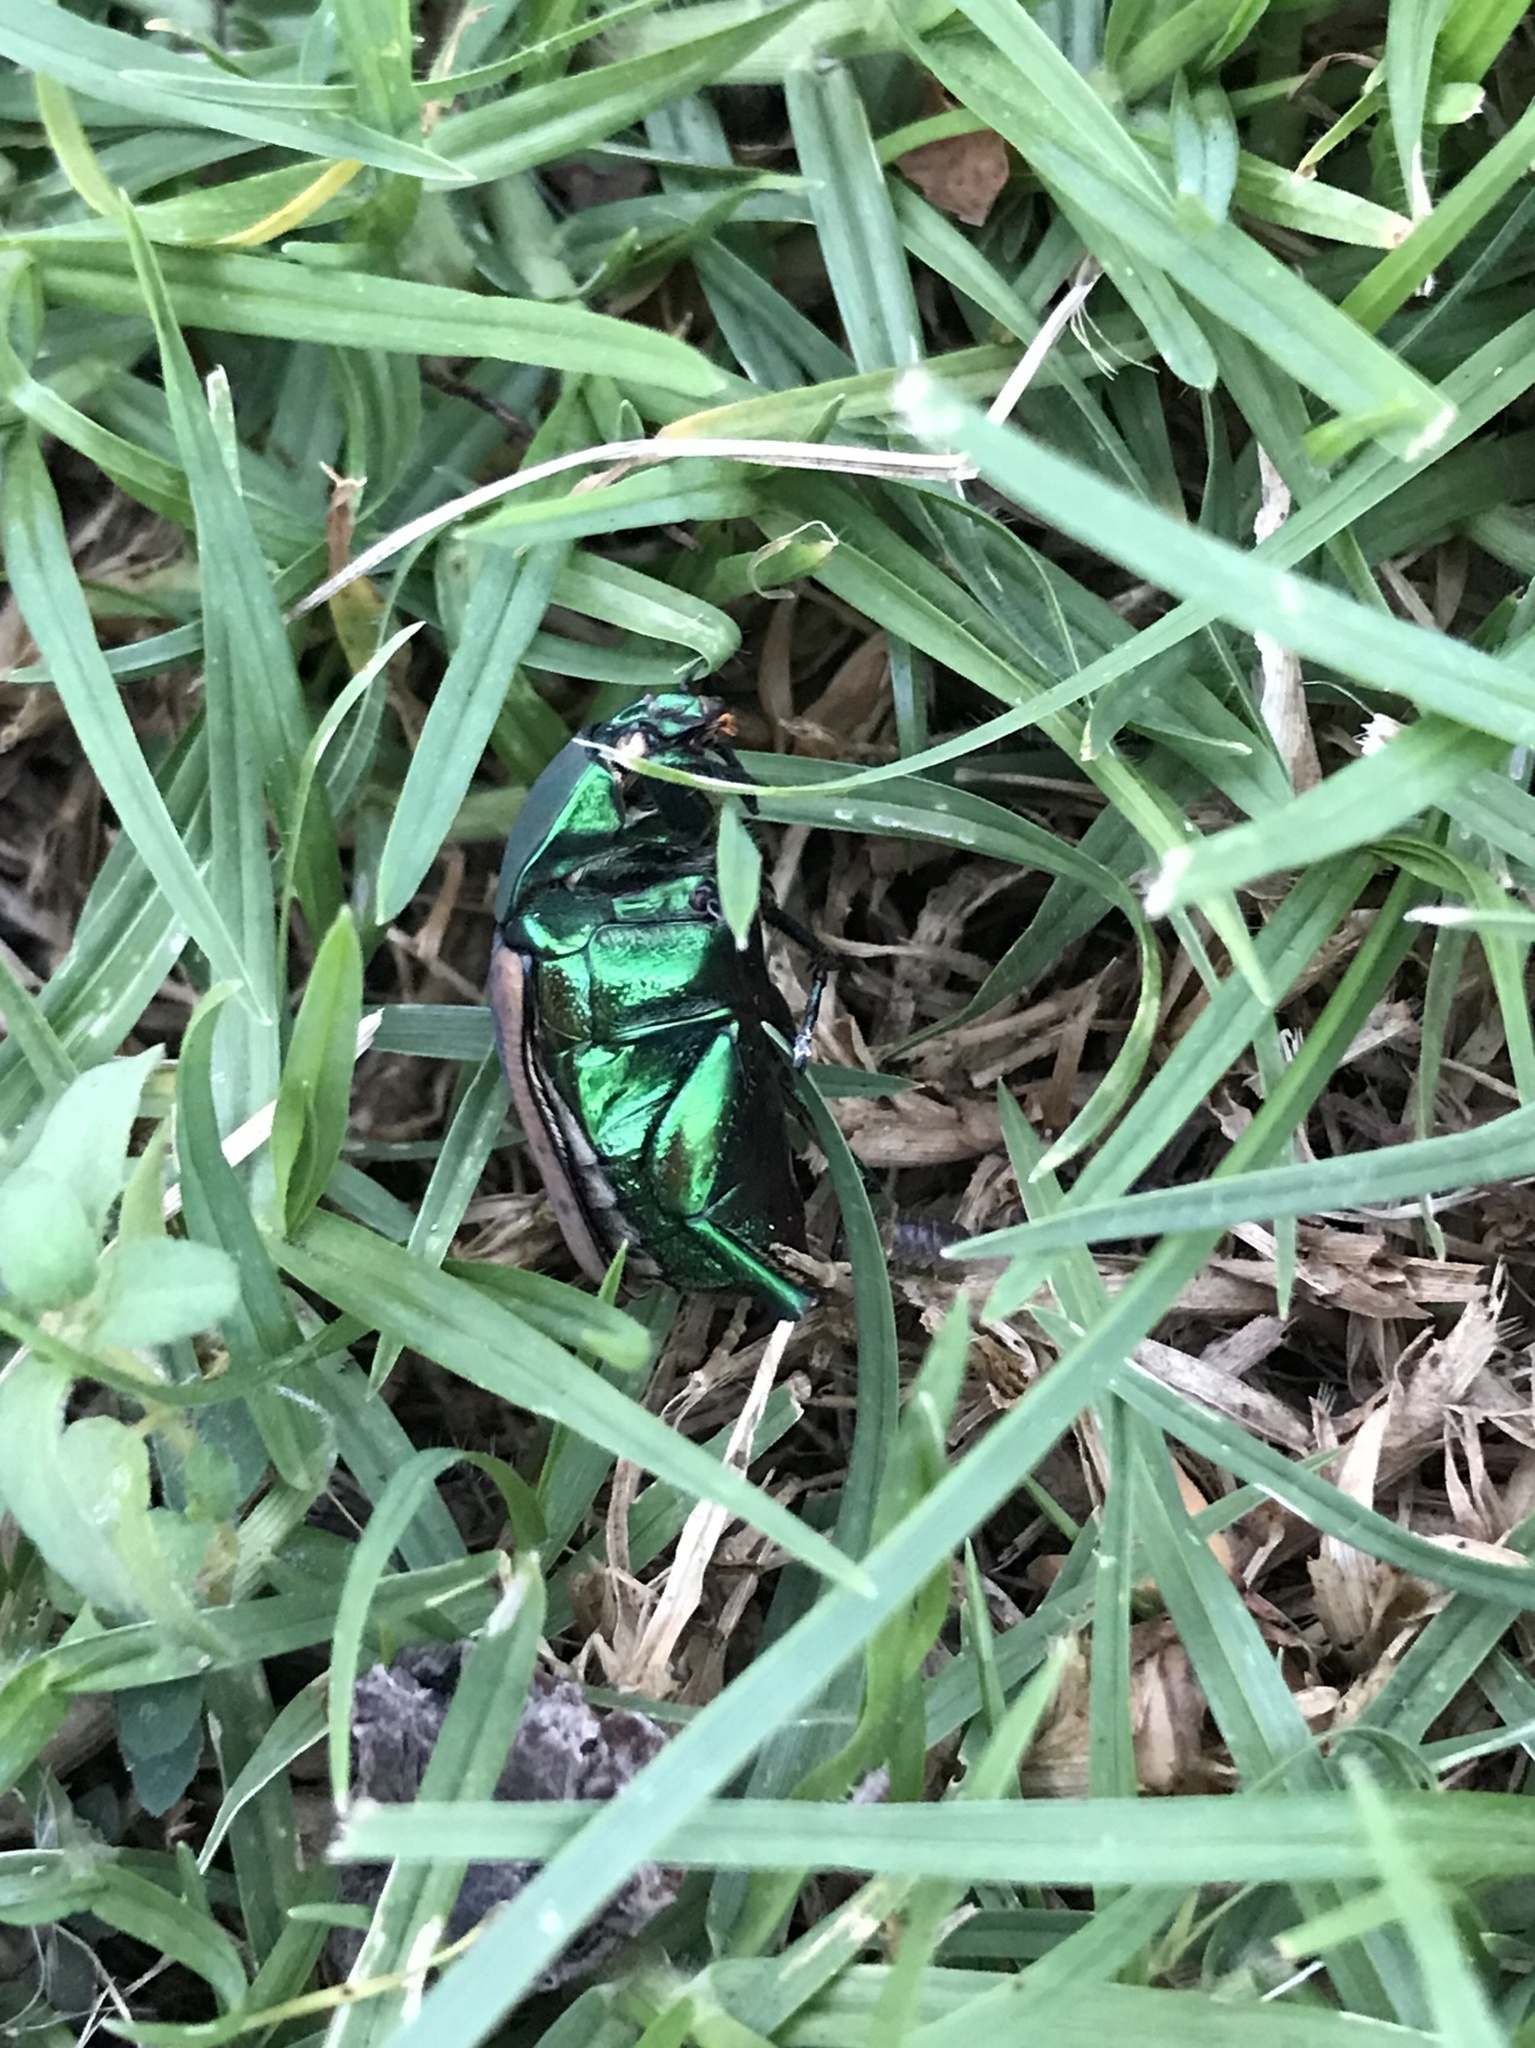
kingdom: Animalia
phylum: Arthropoda
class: Insecta
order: Coleoptera
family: Scarabaeidae
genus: Cotinis
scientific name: Cotinis mutabilis
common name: Figeater beetle
